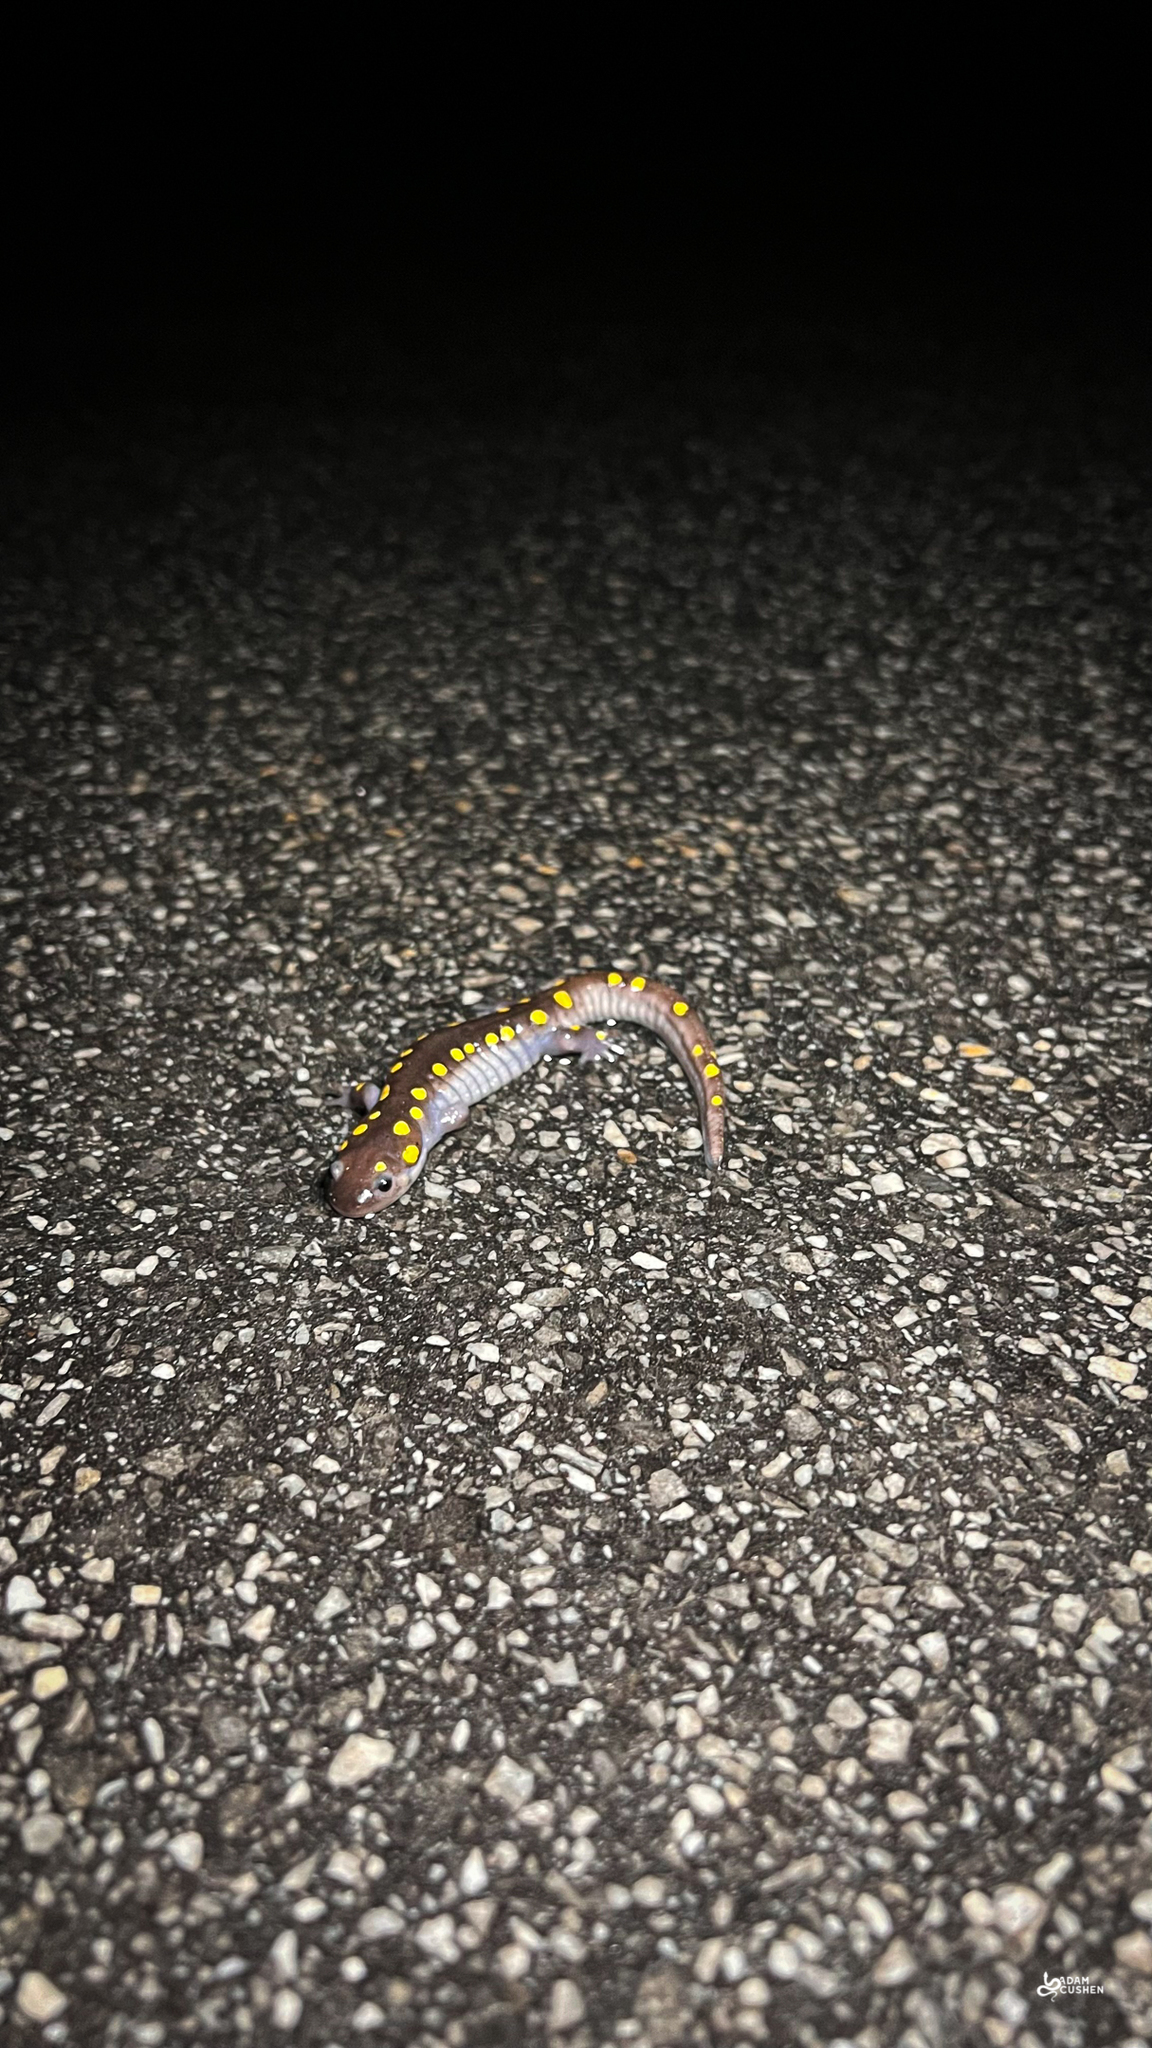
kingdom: Animalia
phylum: Chordata
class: Amphibia
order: Caudata
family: Ambystomatidae
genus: Ambystoma
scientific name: Ambystoma maculatum
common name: Spotted salamander
